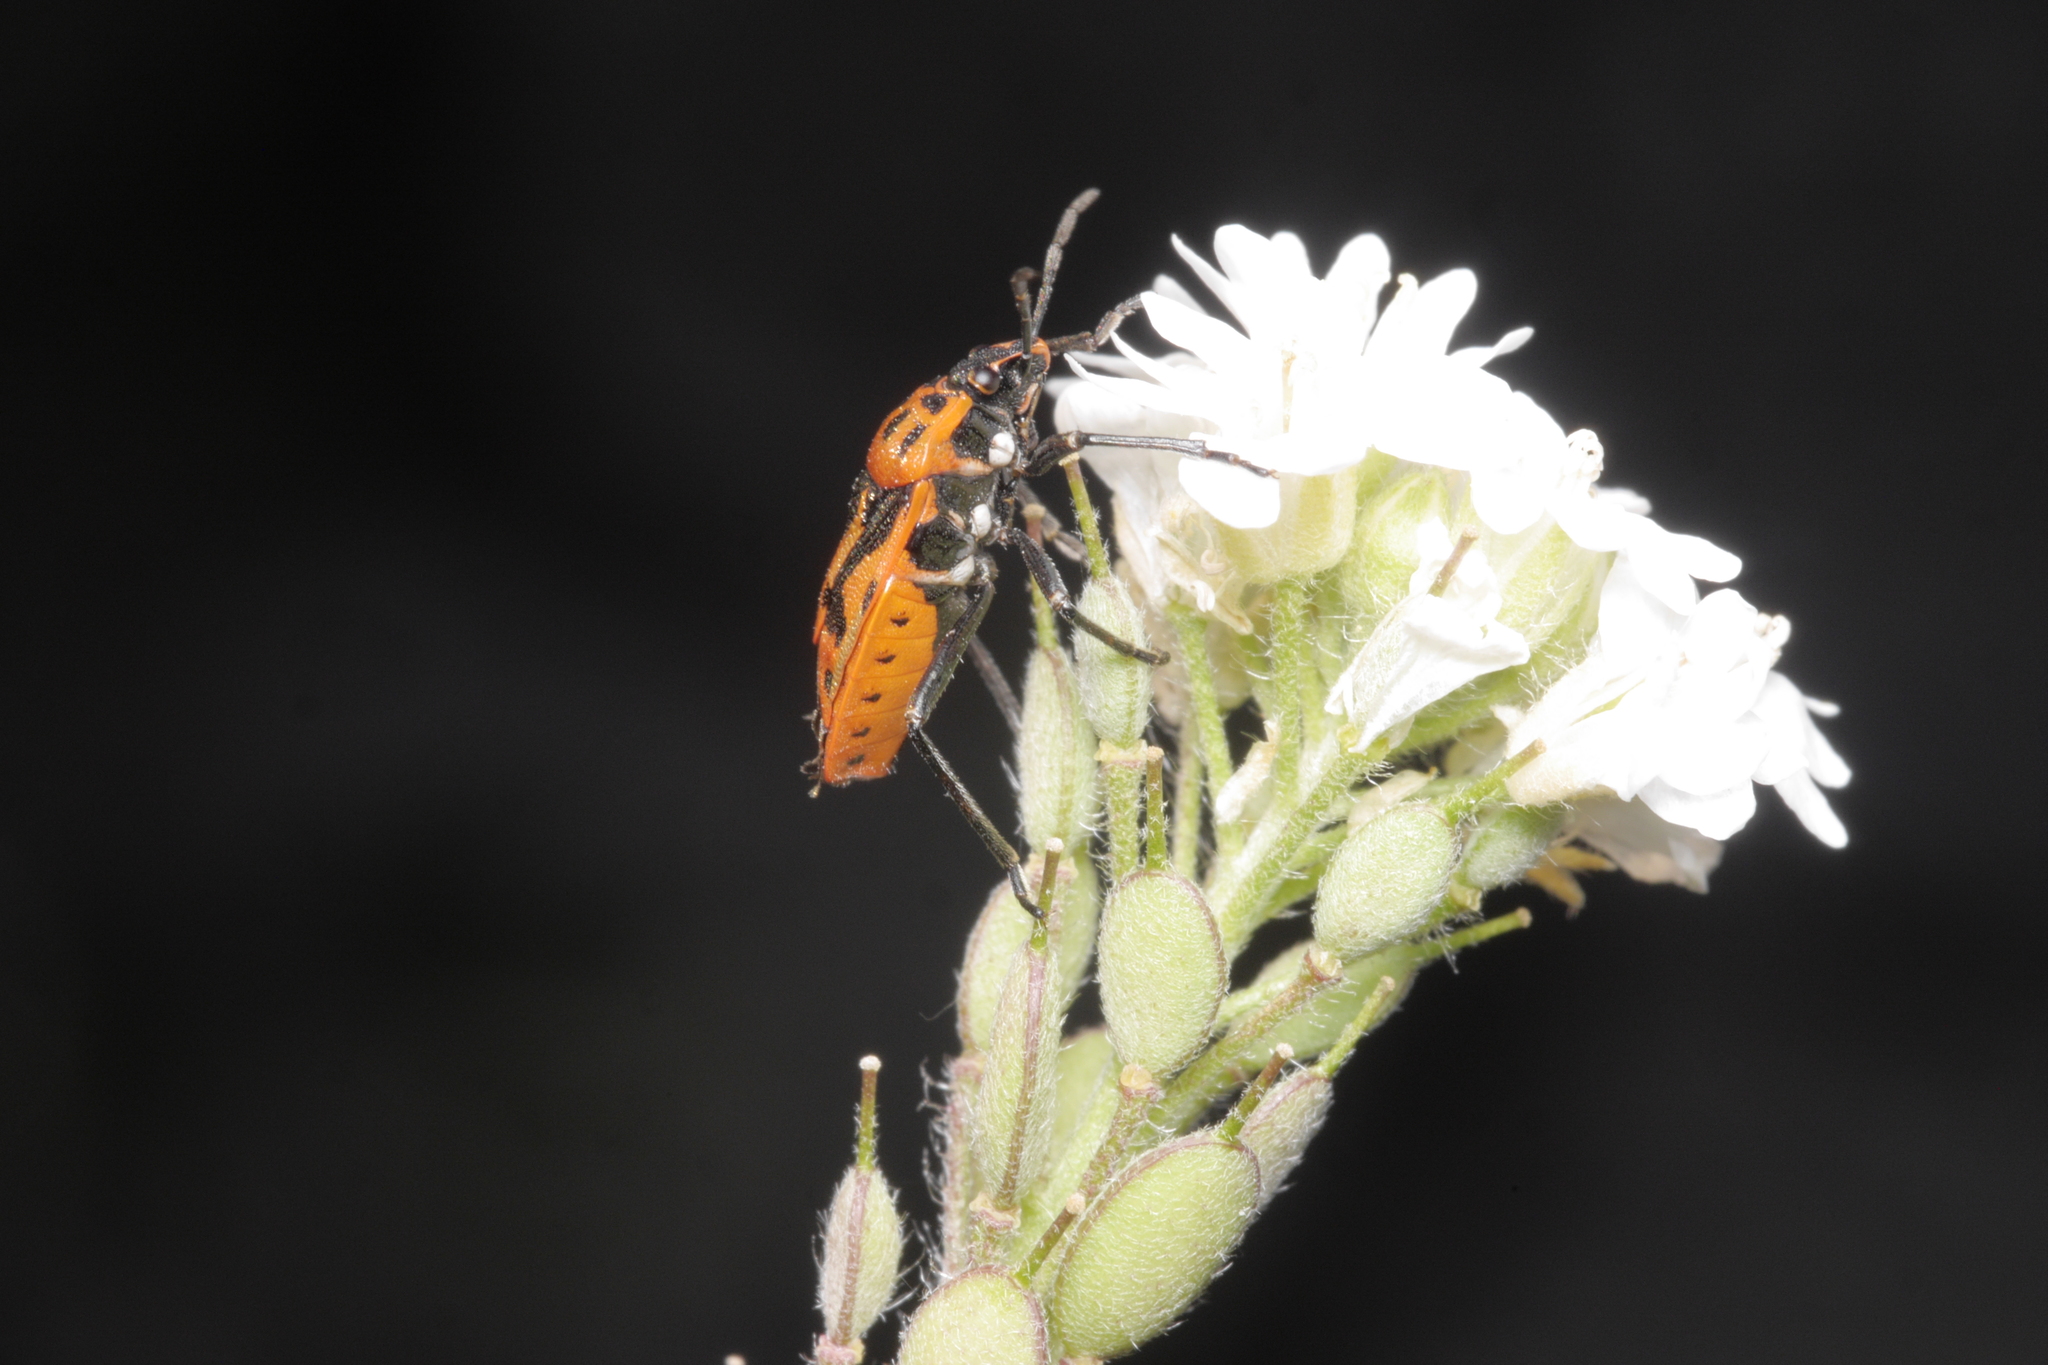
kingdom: Animalia
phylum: Arthropoda
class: Insecta
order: Hemiptera
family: Pentatomidae
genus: Eurydema
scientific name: Eurydema ornata
